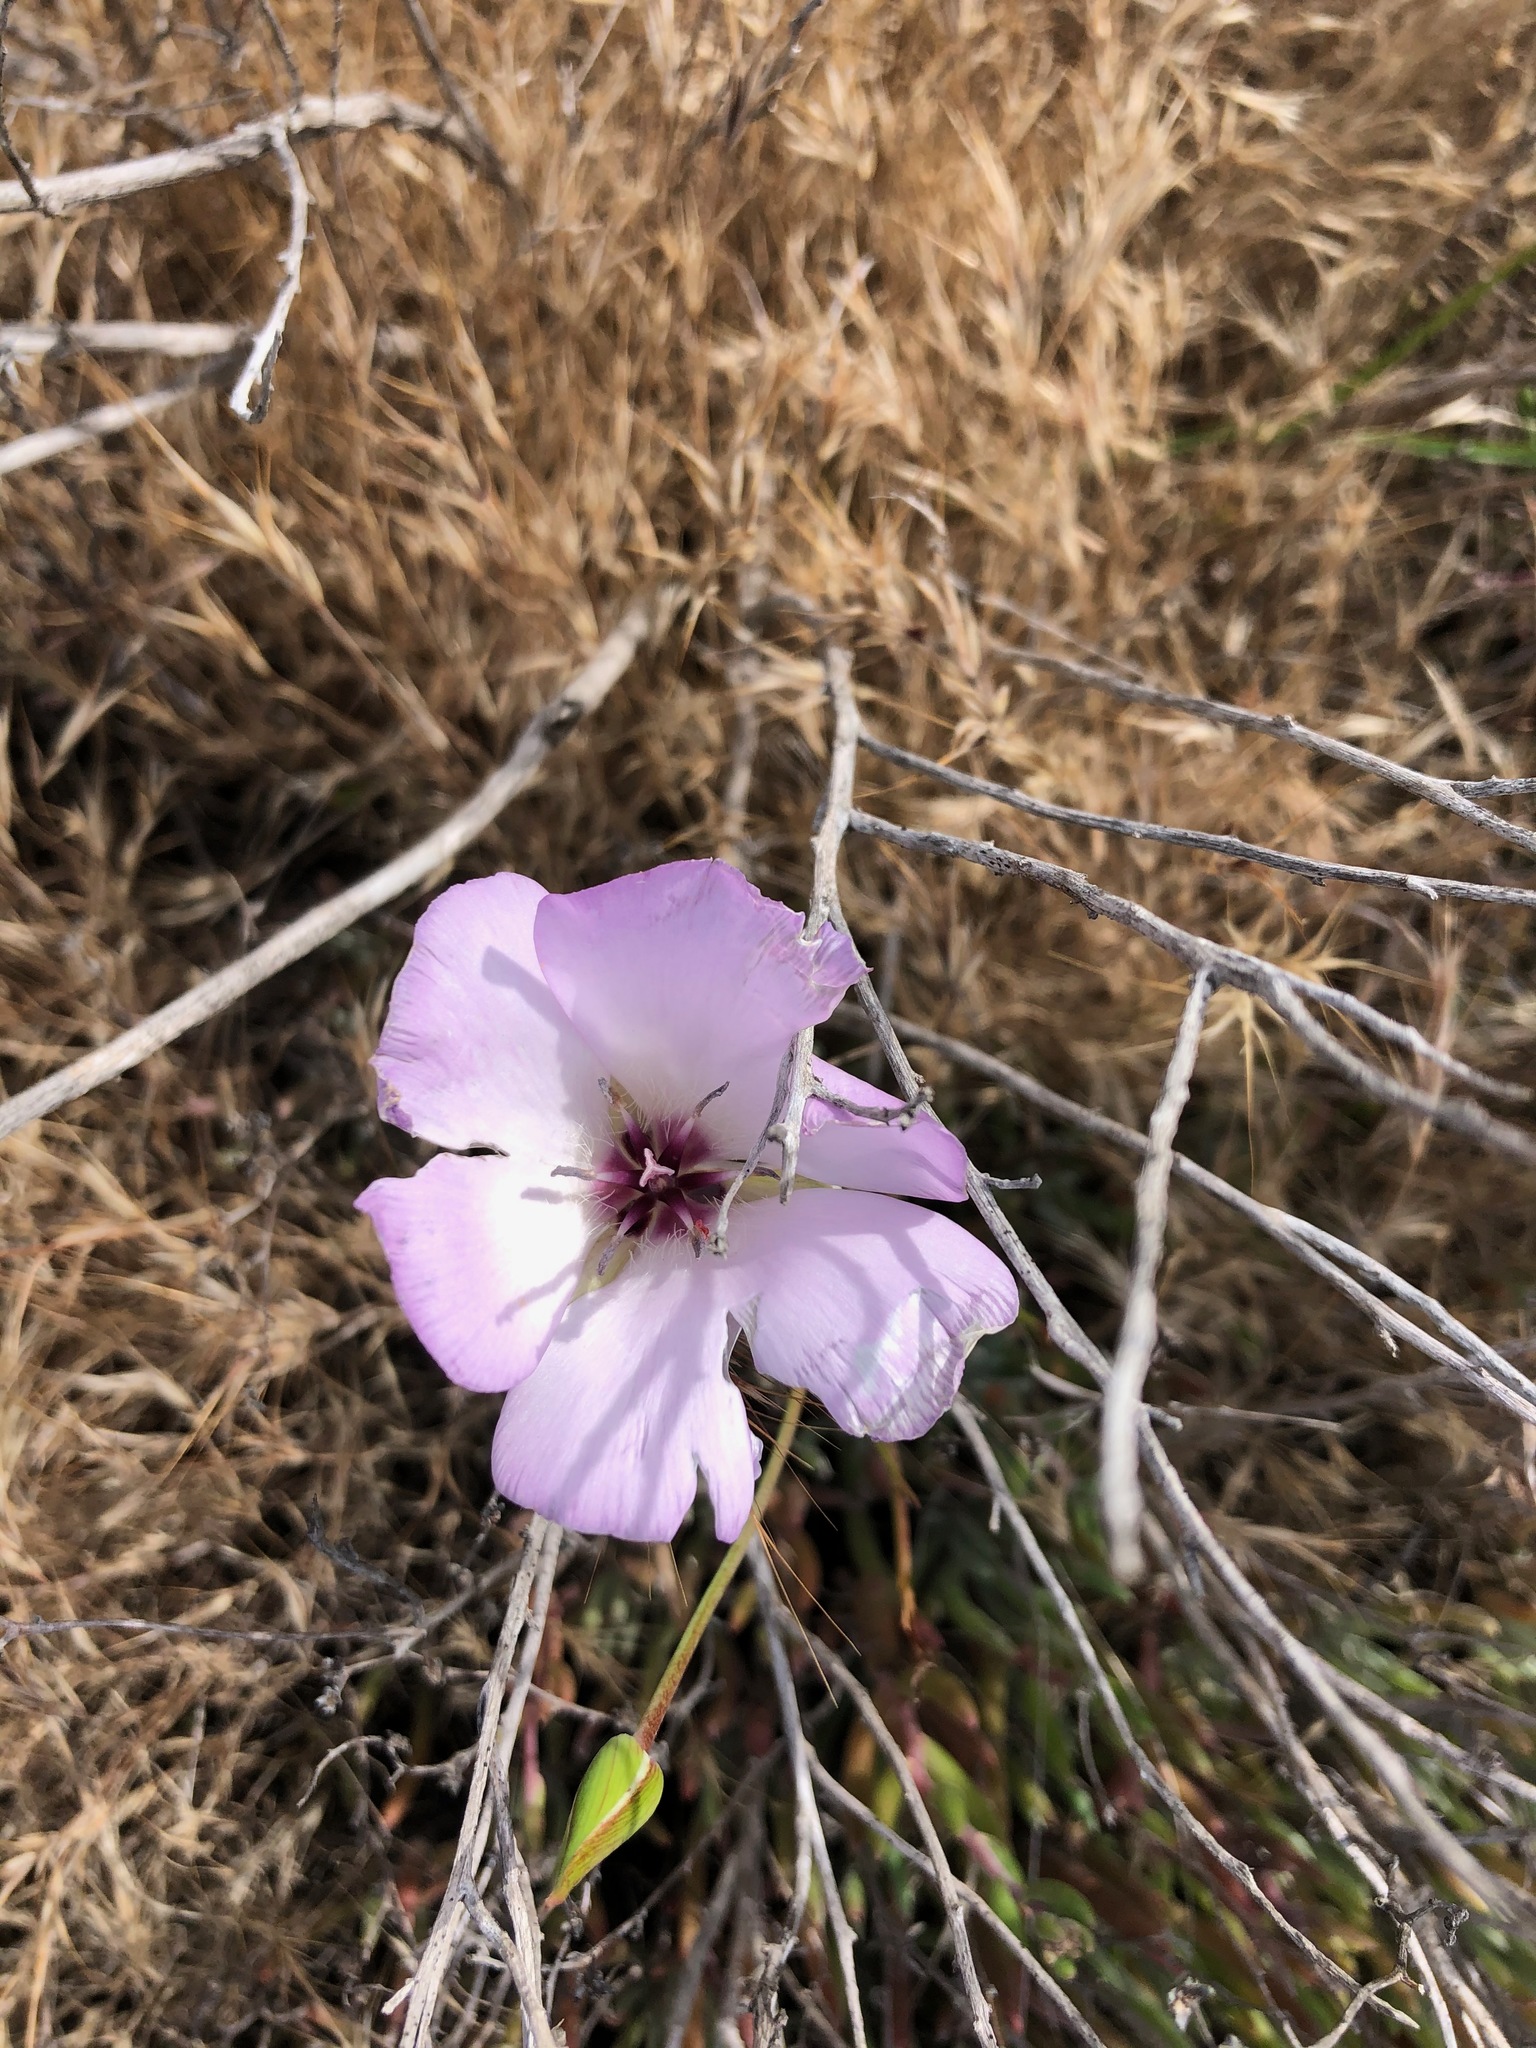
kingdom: Plantae
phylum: Tracheophyta
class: Liliopsida
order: Liliales
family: Liliaceae
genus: Calochortus
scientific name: Calochortus splendens
